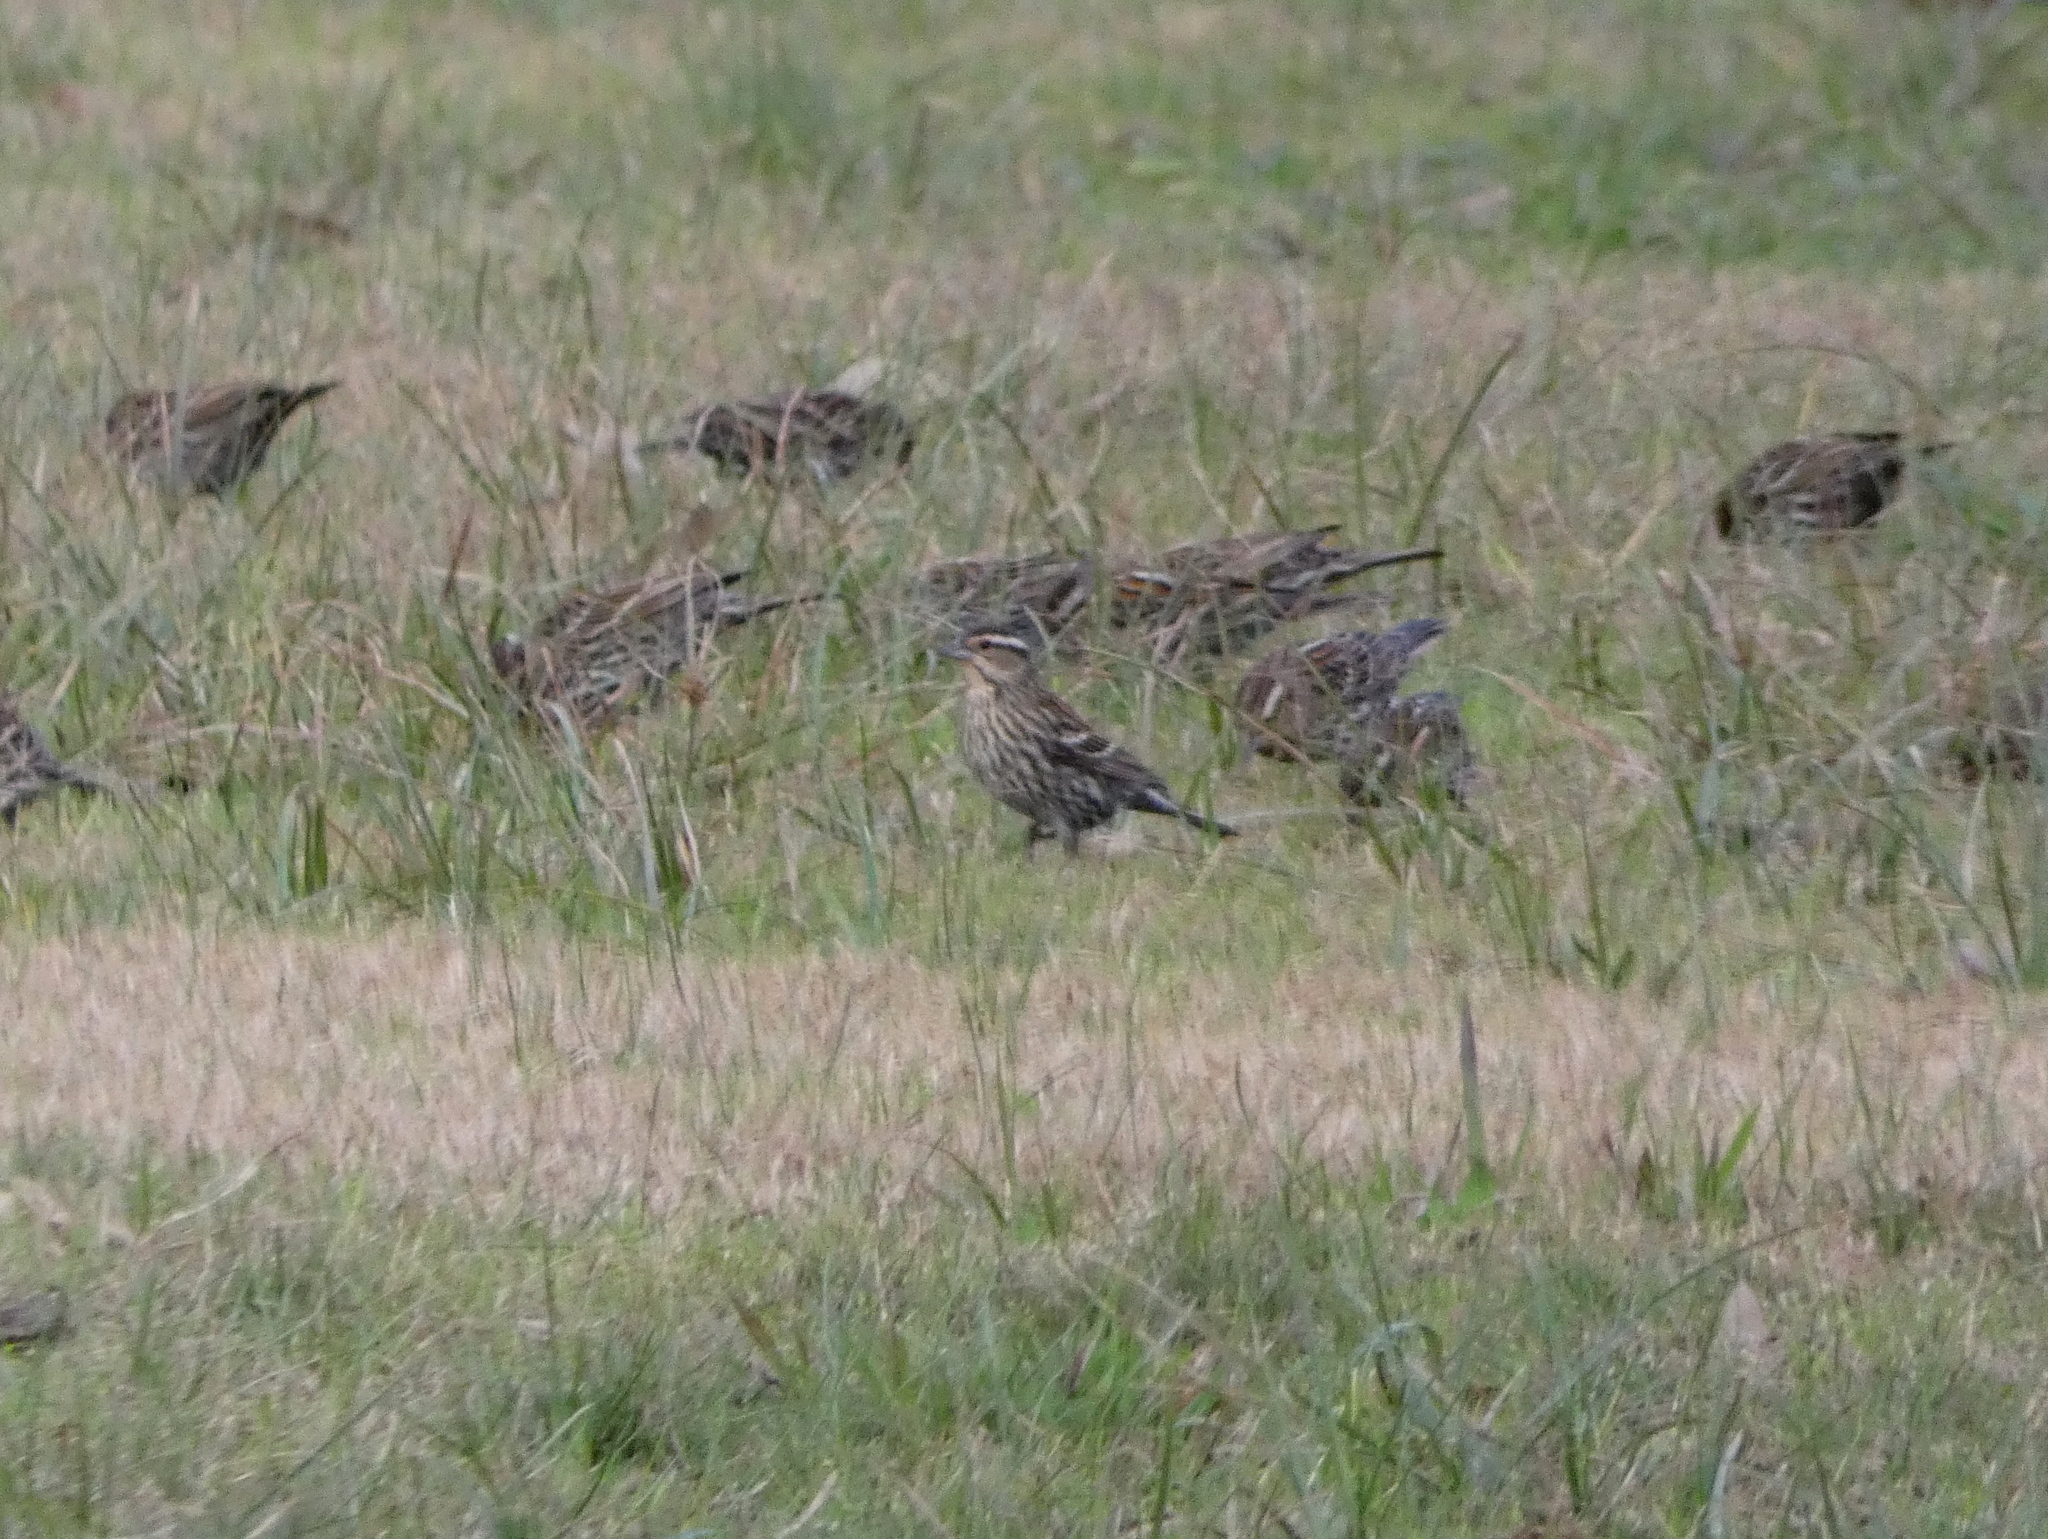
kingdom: Animalia
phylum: Chordata
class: Aves
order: Passeriformes
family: Icteridae
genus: Agelaius
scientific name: Agelaius phoeniceus
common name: Red-winged blackbird
